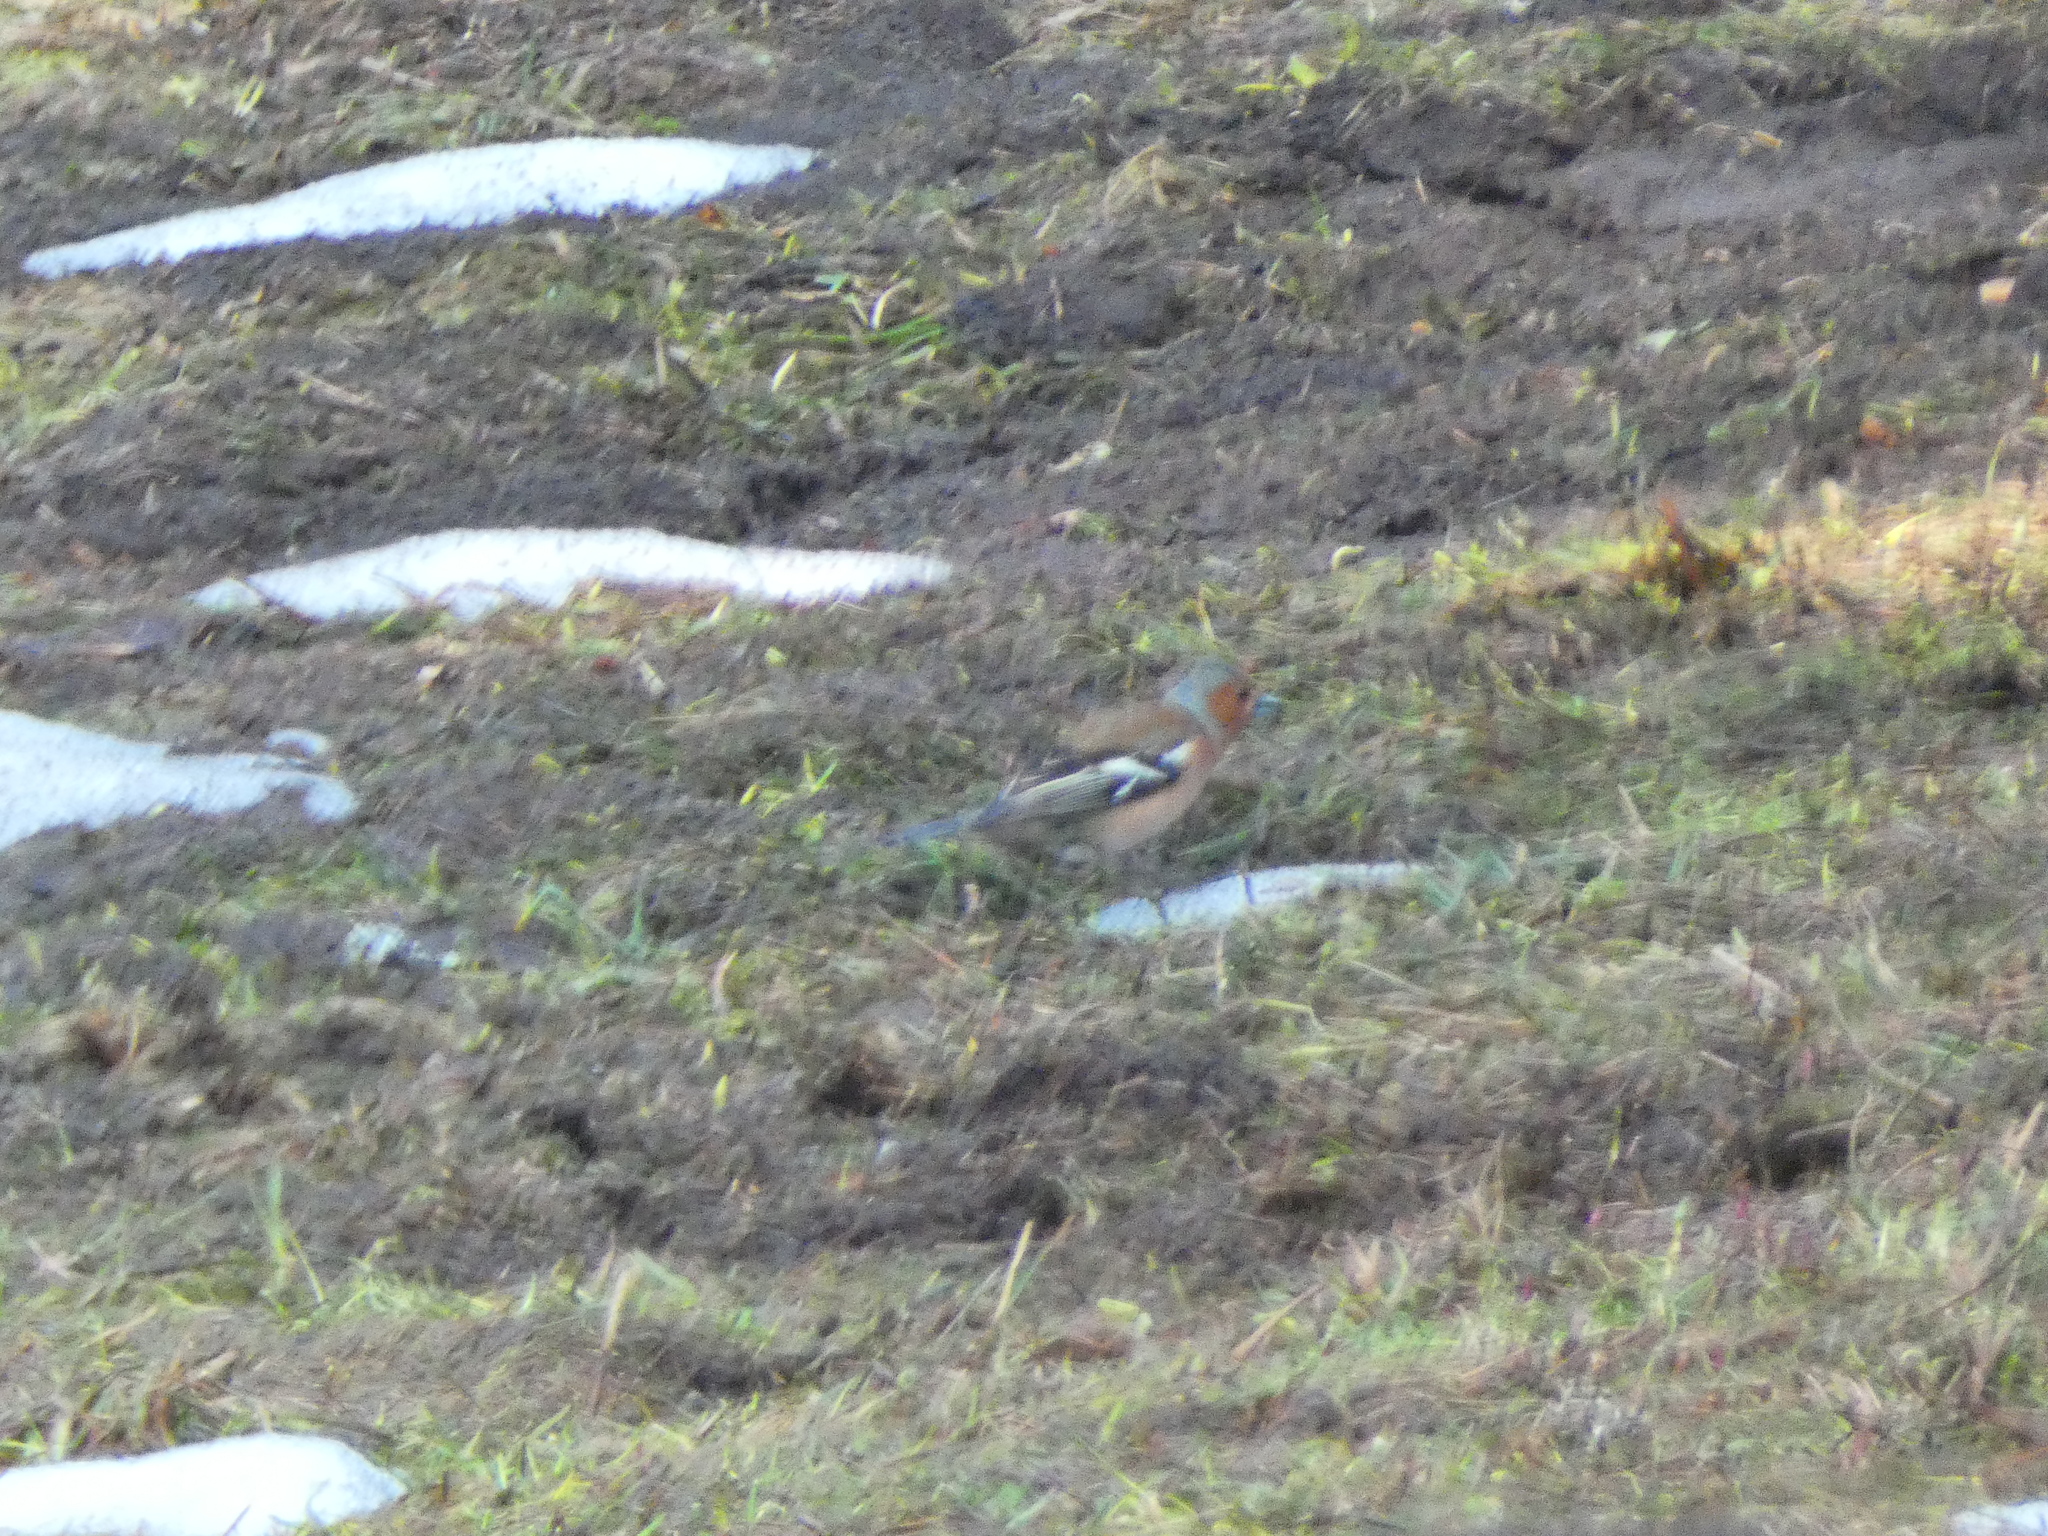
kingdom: Animalia
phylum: Chordata
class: Aves
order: Passeriformes
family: Fringillidae
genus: Fringilla
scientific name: Fringilla coelebs
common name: Common chaffinch
